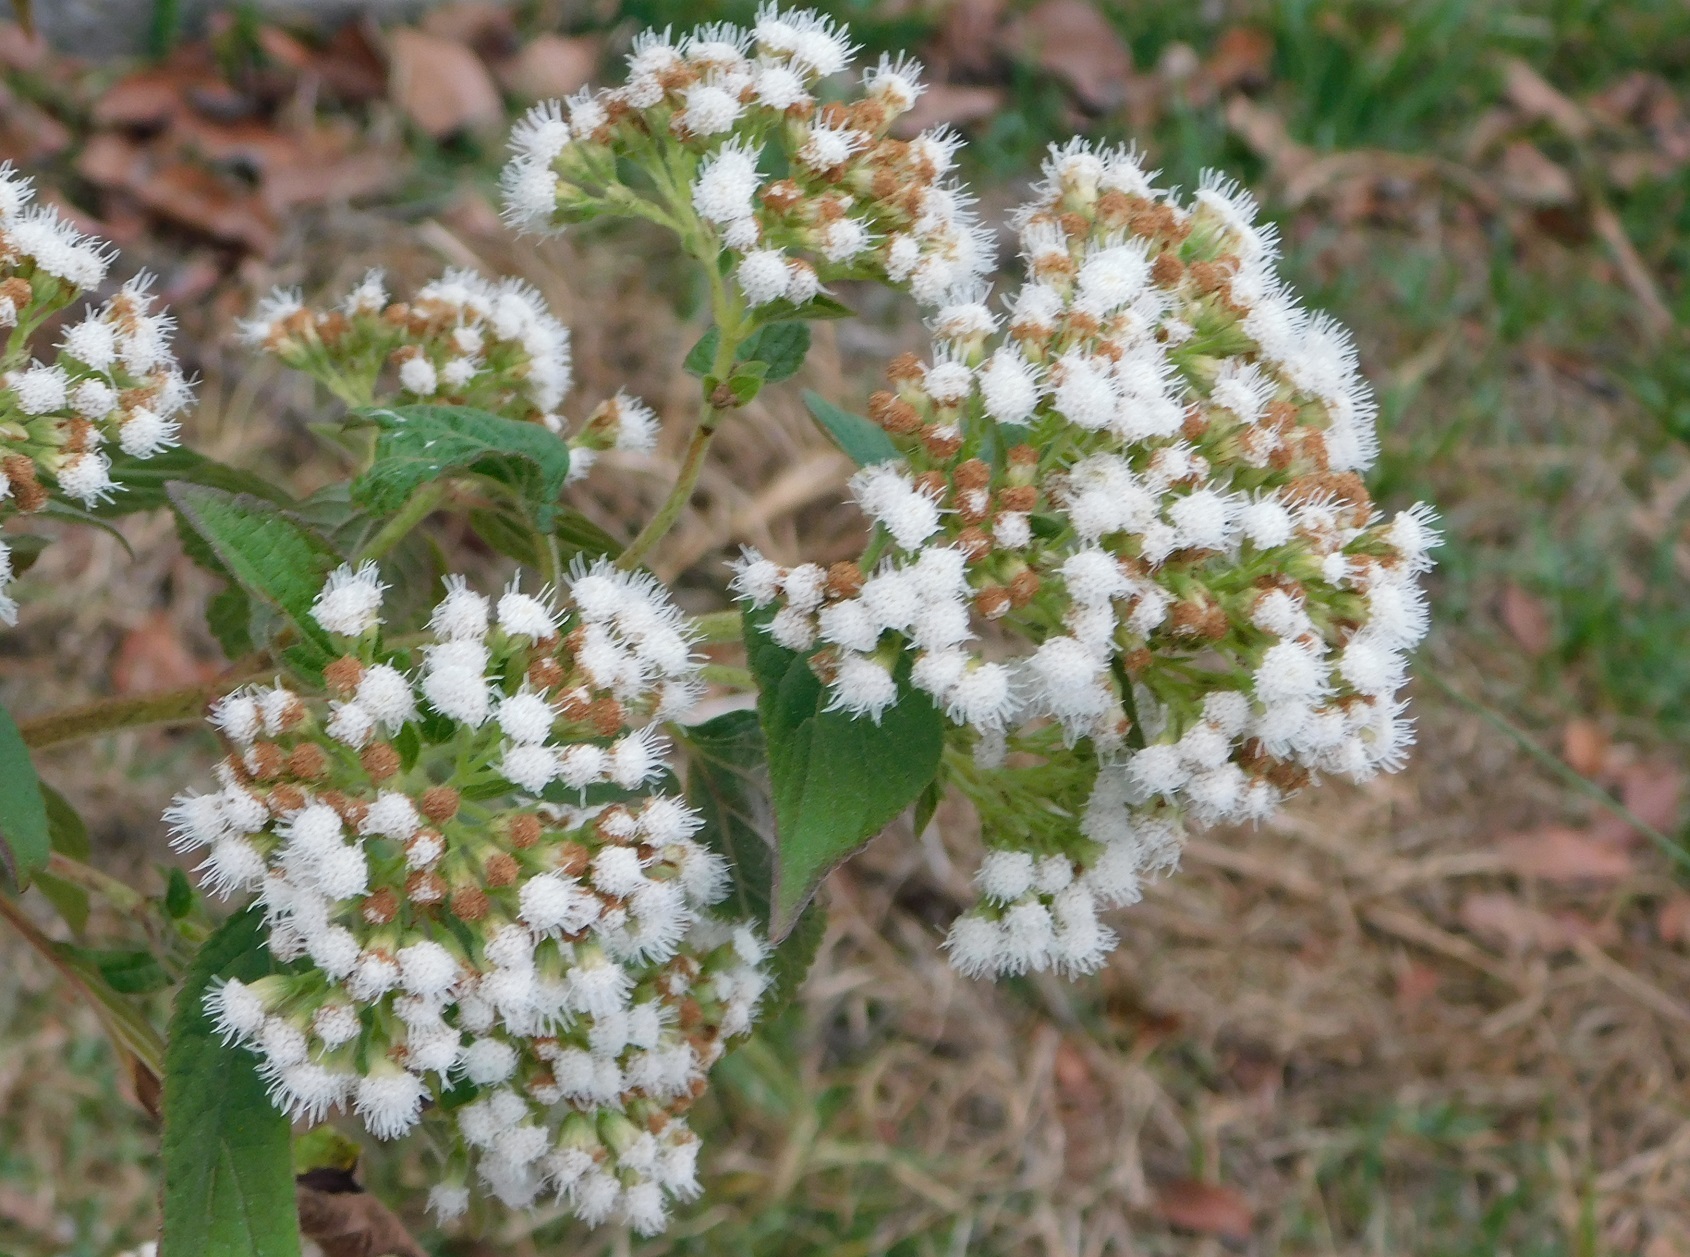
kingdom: Plantae
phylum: Tracheophyta
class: Magnoliopsida
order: Asterales
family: Asteraceae
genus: Ageratina
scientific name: Ageratina vernalis
